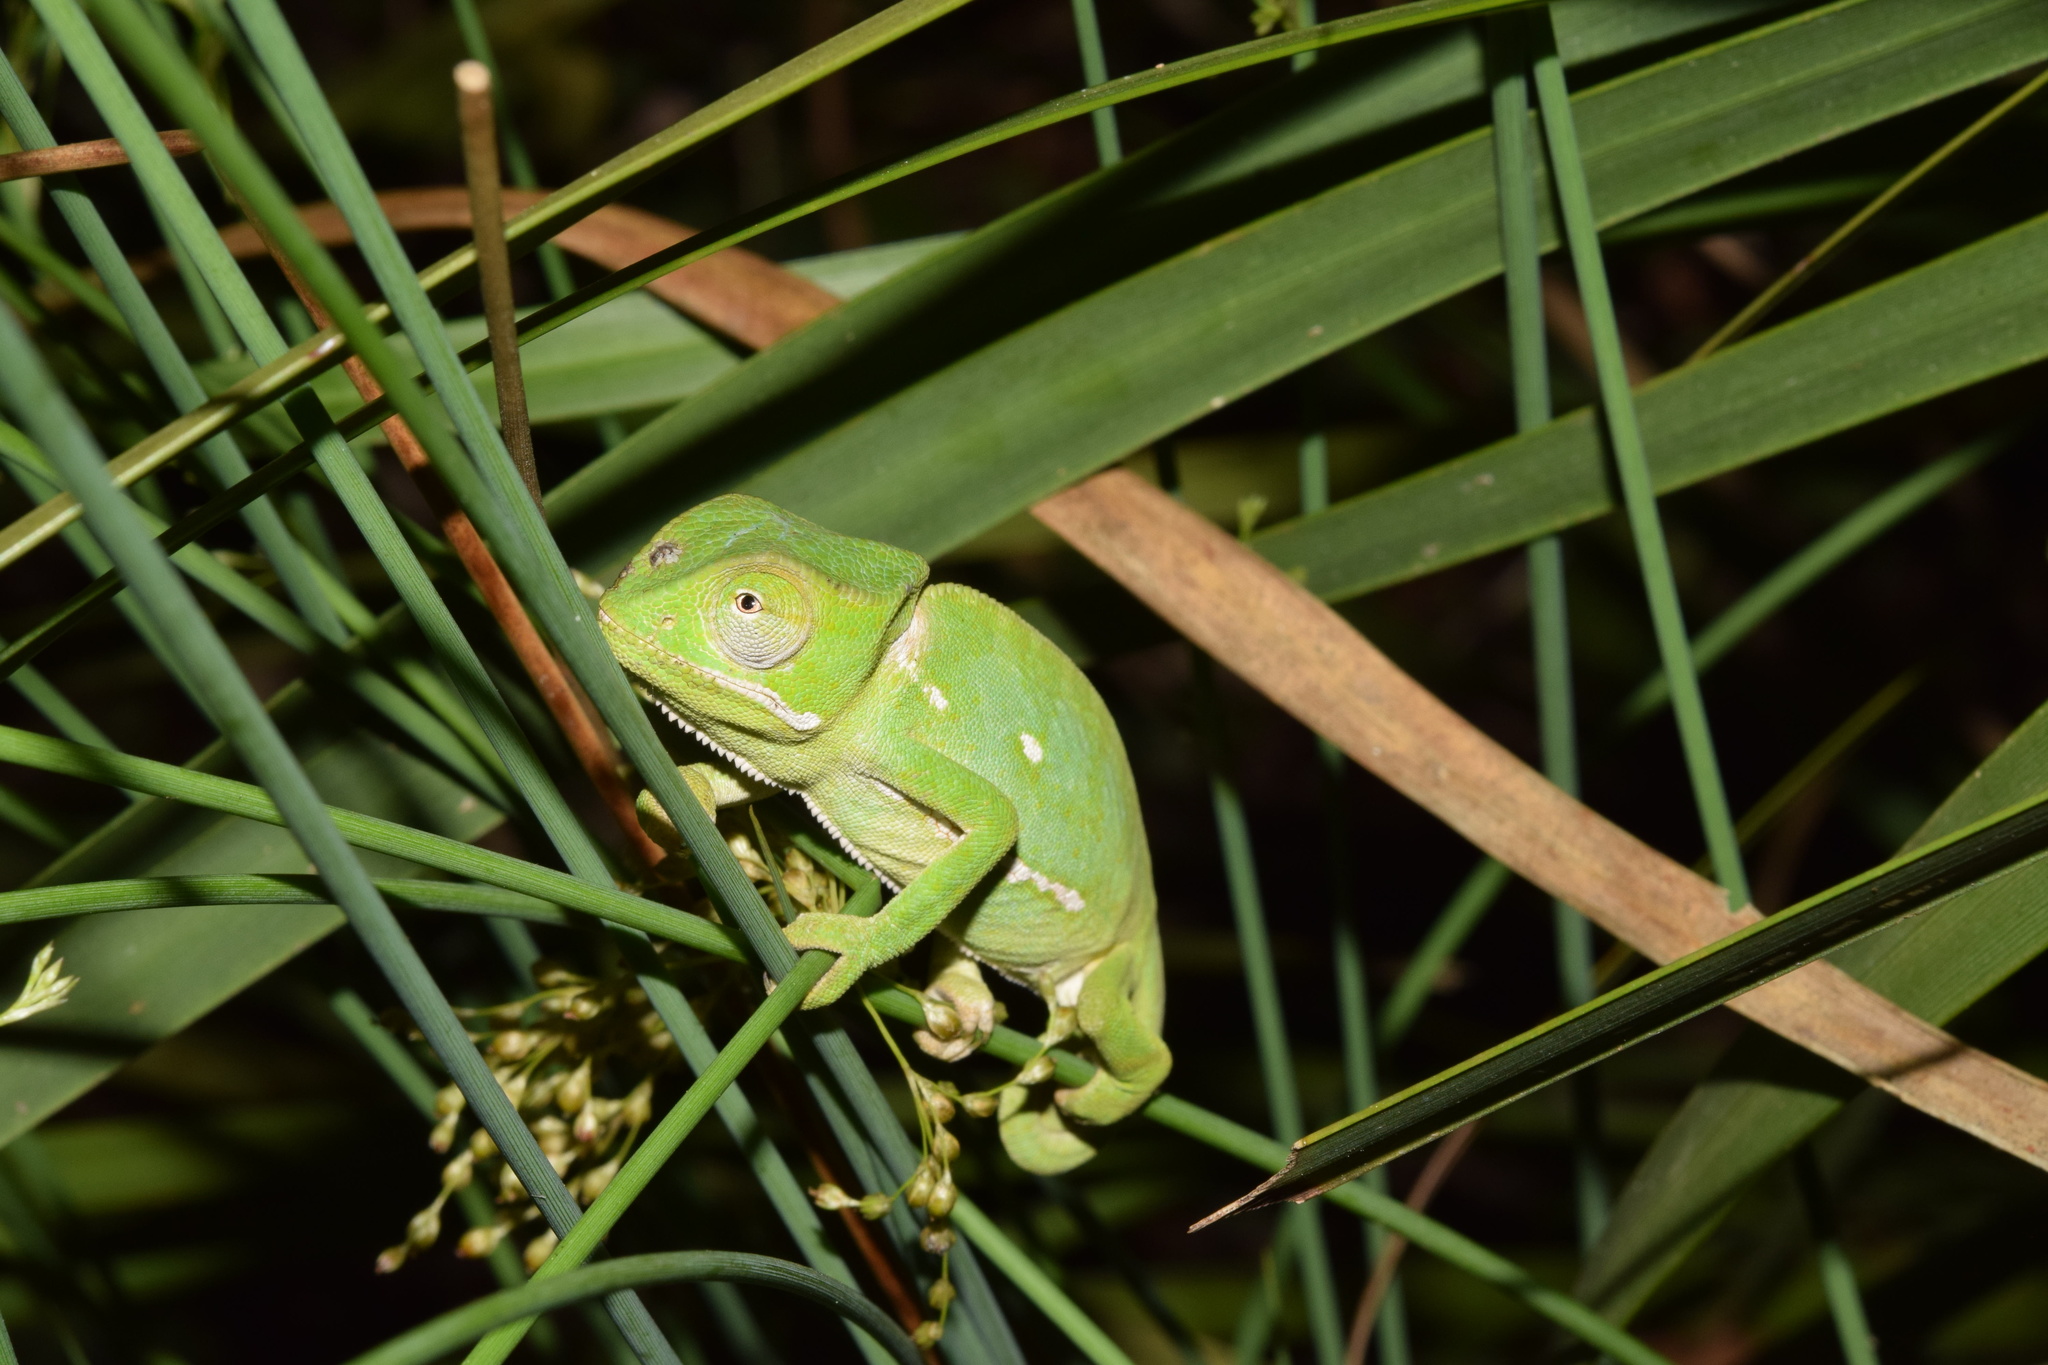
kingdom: Animalia
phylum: Chordata
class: Squamata
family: Chamaeleonidae
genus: Chamaeleo
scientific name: Chamaeleo dilepis
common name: Flapneck chameleon
